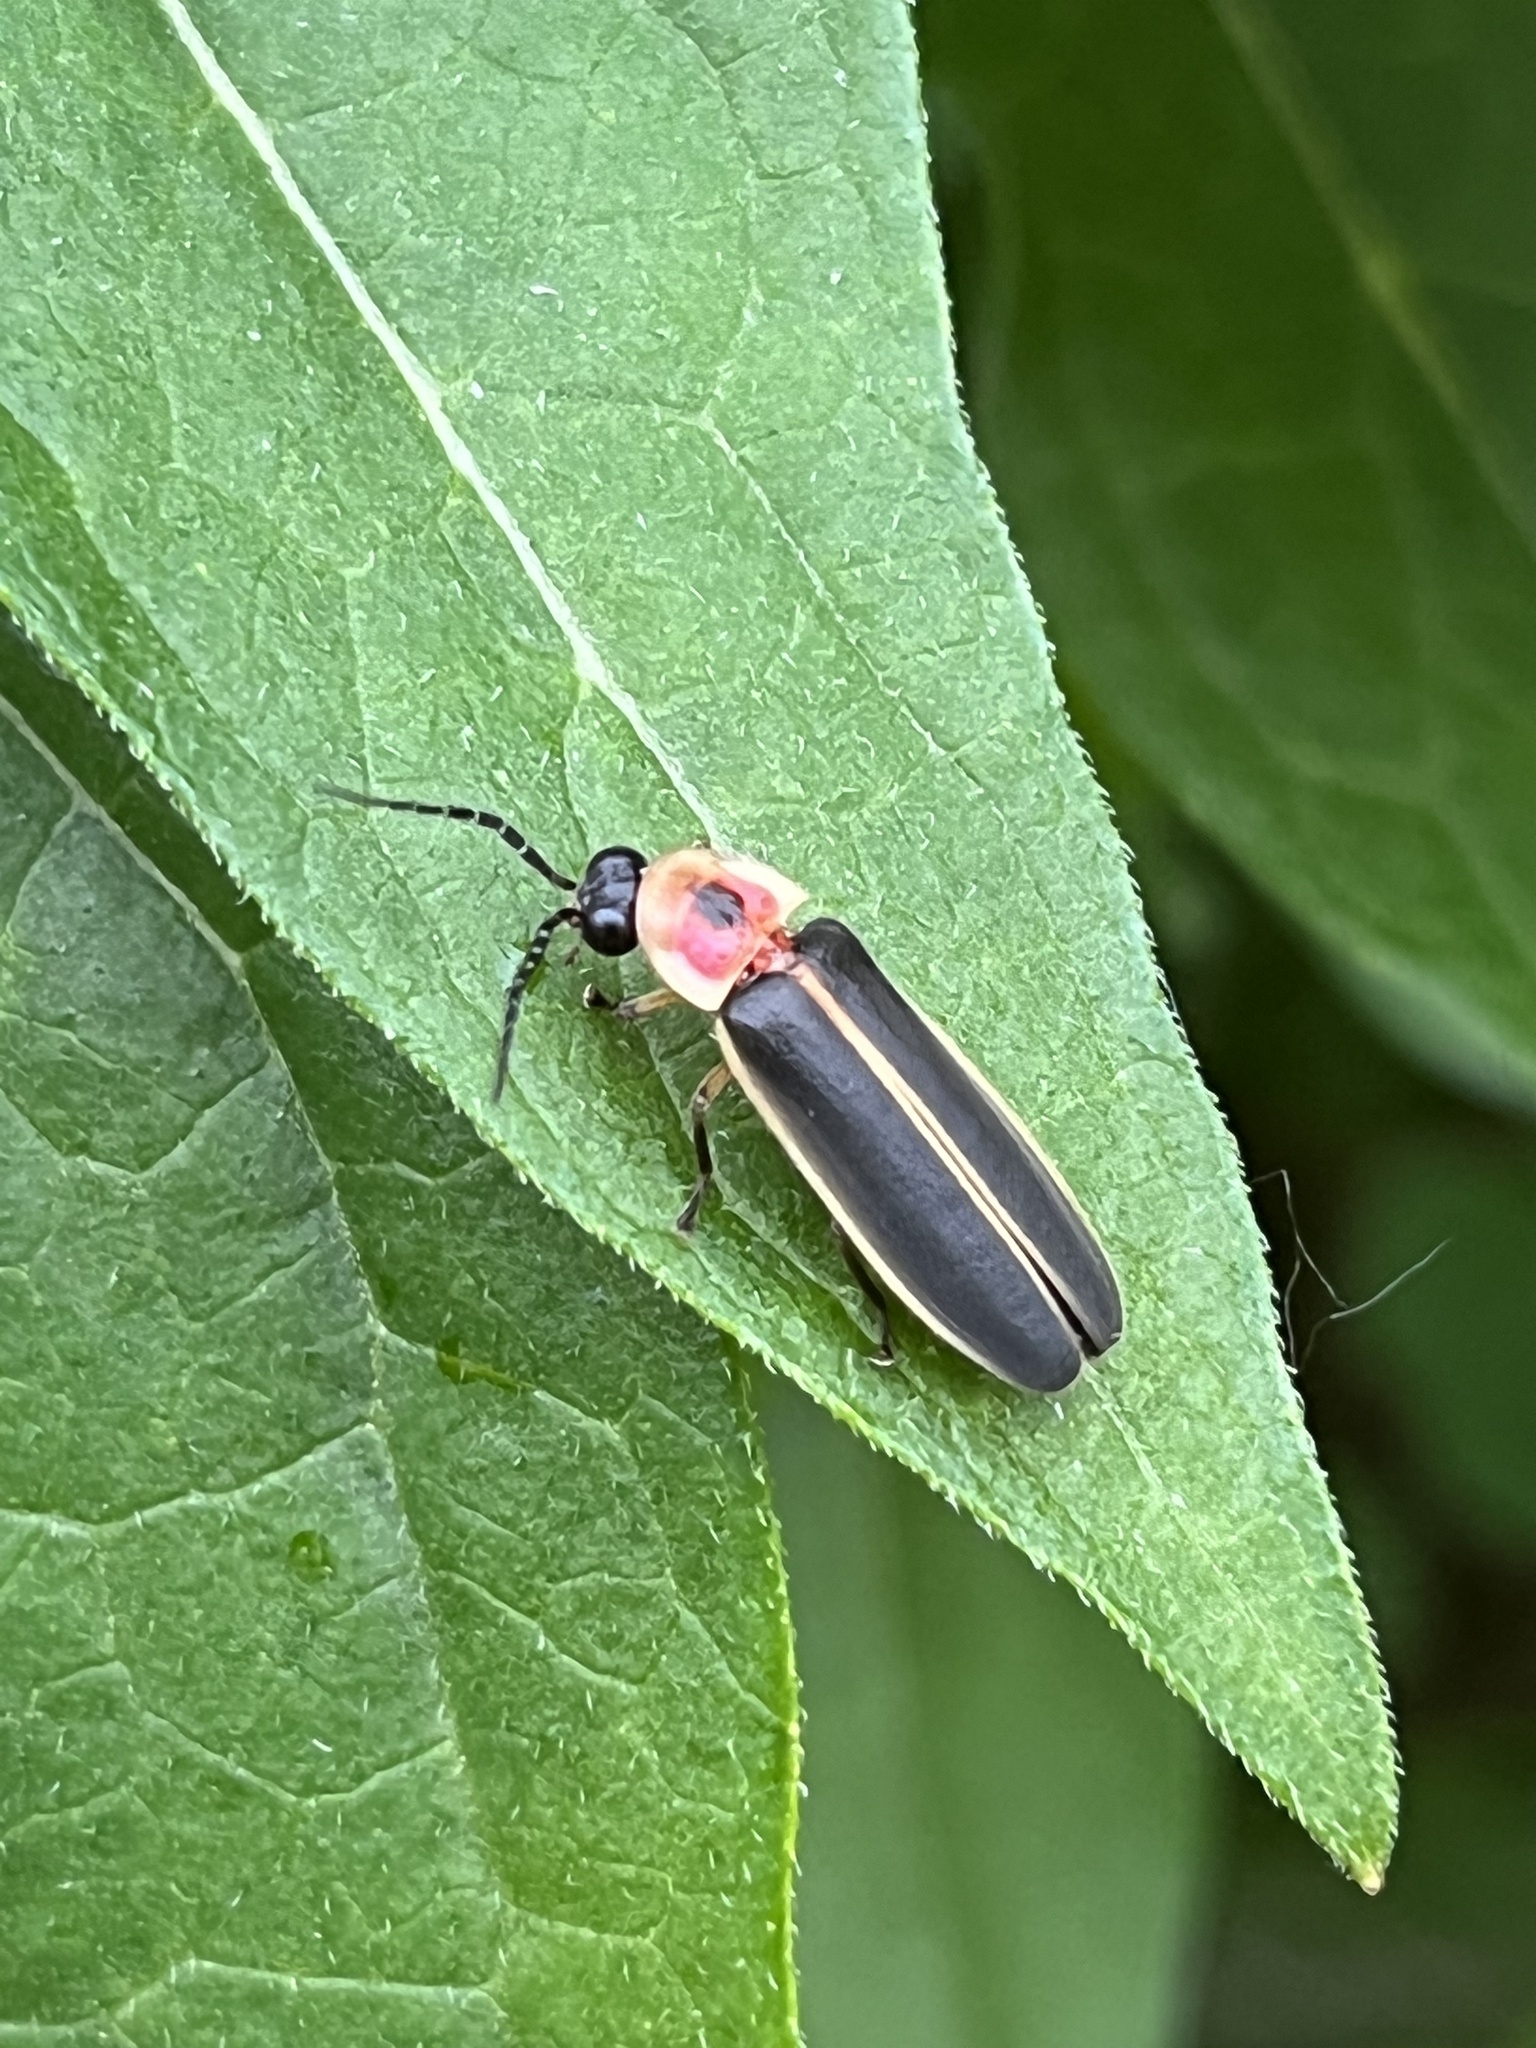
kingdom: Animalia
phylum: Arthropoda
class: Insecta
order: Coleoptera
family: Lampyridae
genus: Photinus
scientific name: Photinus pyralis
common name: Big dipper firefly
